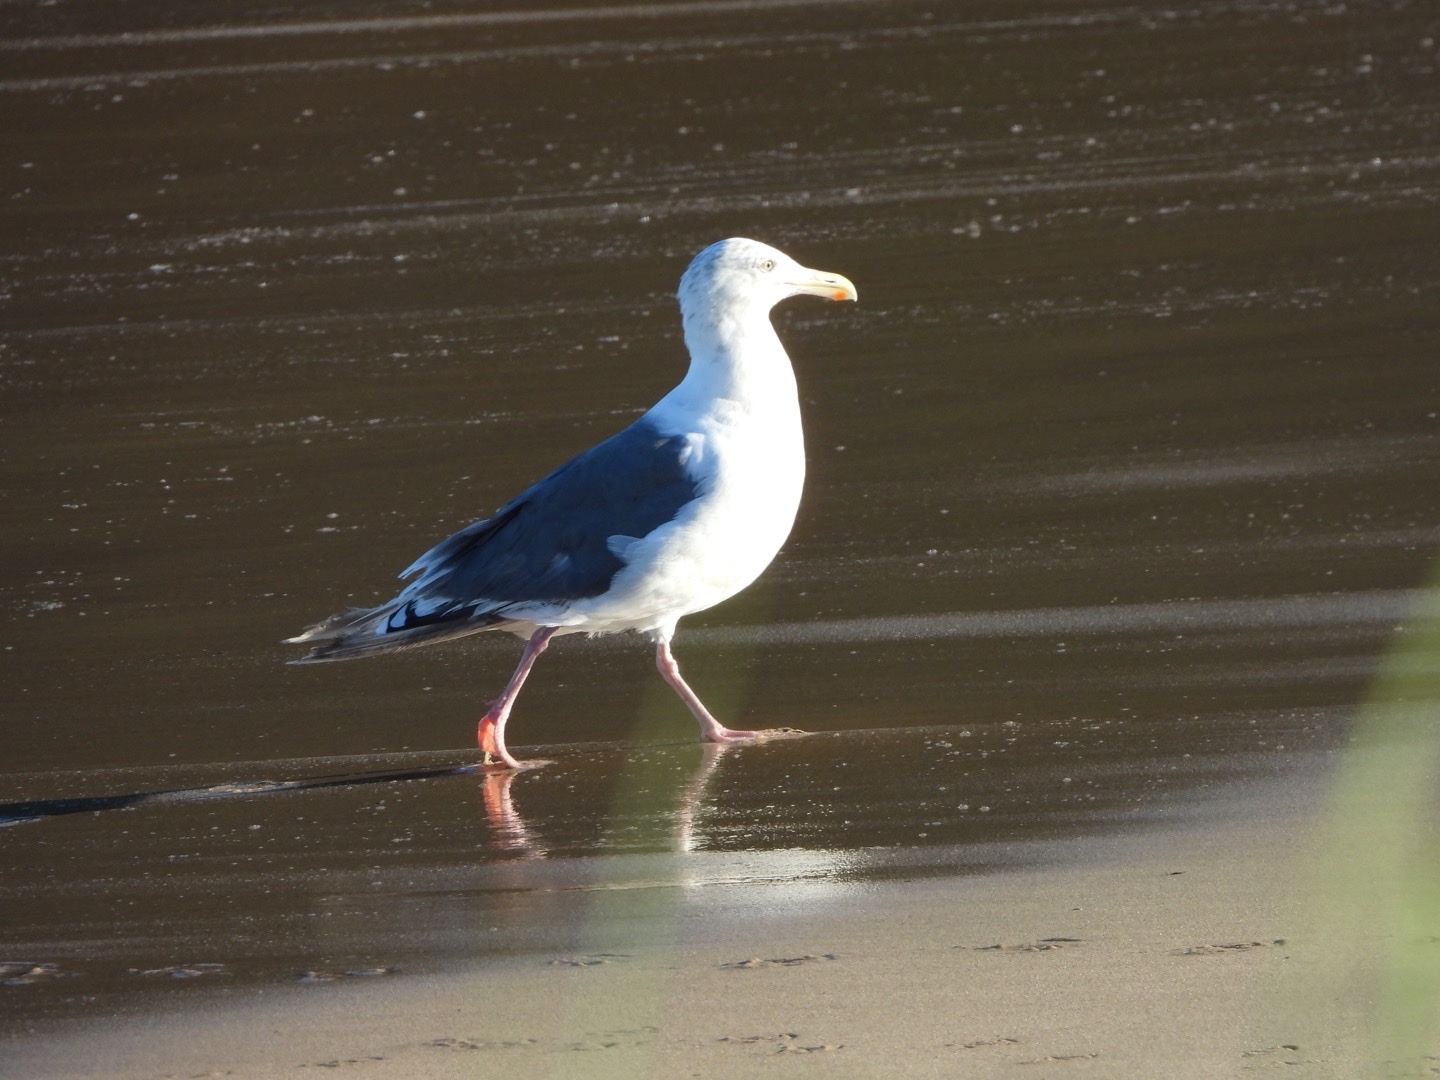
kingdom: Animalia
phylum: Chordata
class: Aves
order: Charadriiformes
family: Laridae
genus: Larus
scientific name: Larus schistisagus
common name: Slaty-backed gull
